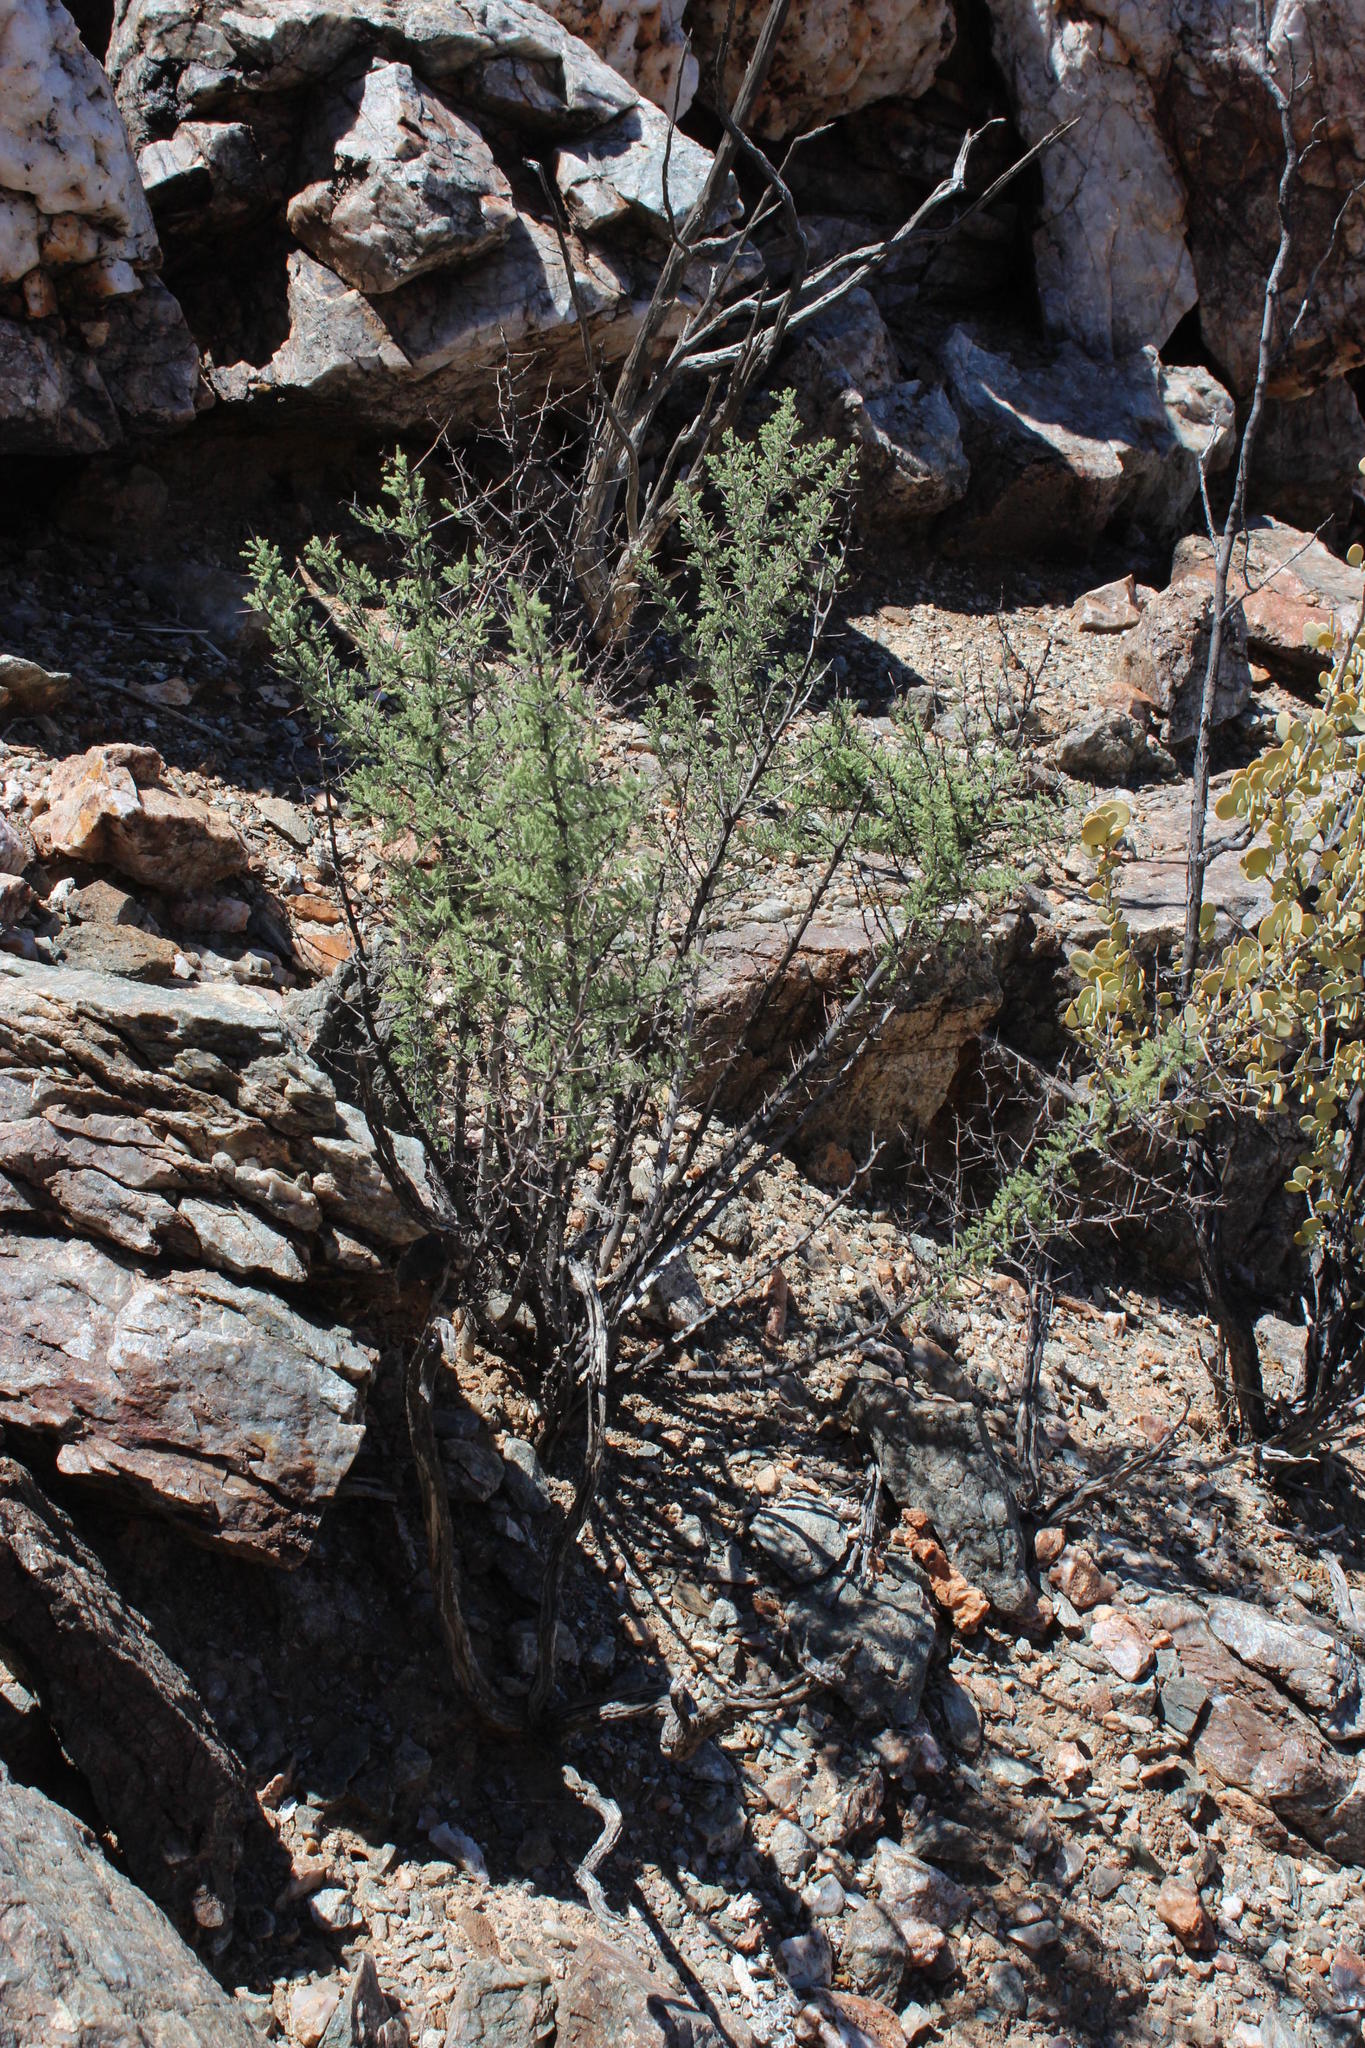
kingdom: Plantae
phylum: Tracheophyta
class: Liliopsida
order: Asparagales
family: Asparagaceae
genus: Asparagus
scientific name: Asparagus capensis
